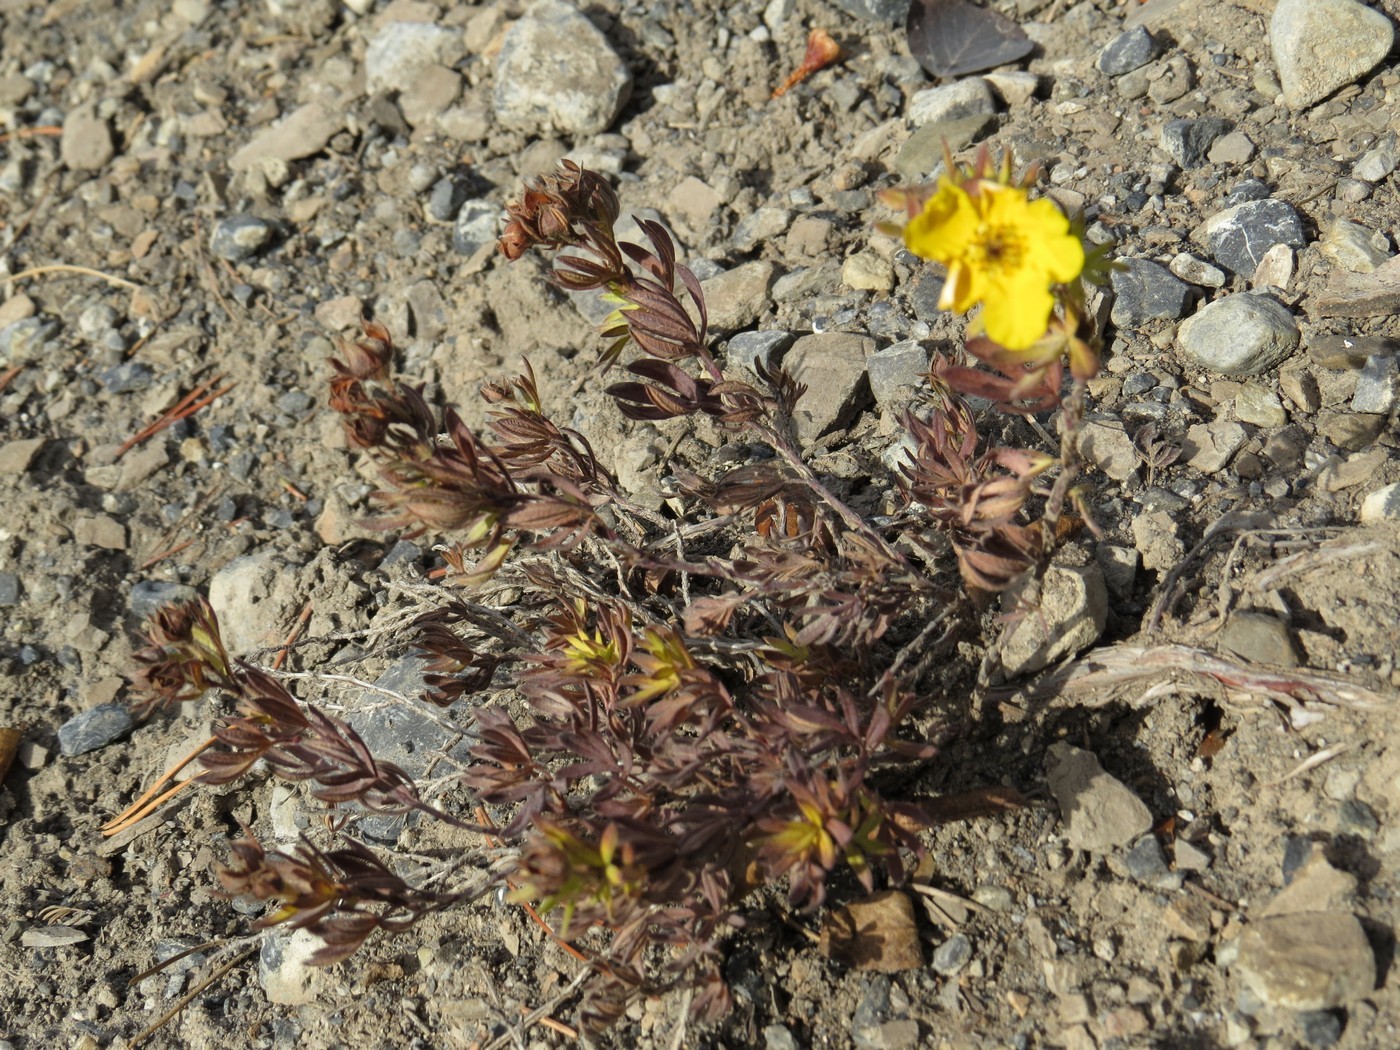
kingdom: Plantae
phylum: Tracheophyta
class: Magnoliopsida
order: Rosales
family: Rosaceae
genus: Dasiphora
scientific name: Dasiphora fruticosa
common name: Shrubby cinquefoil
